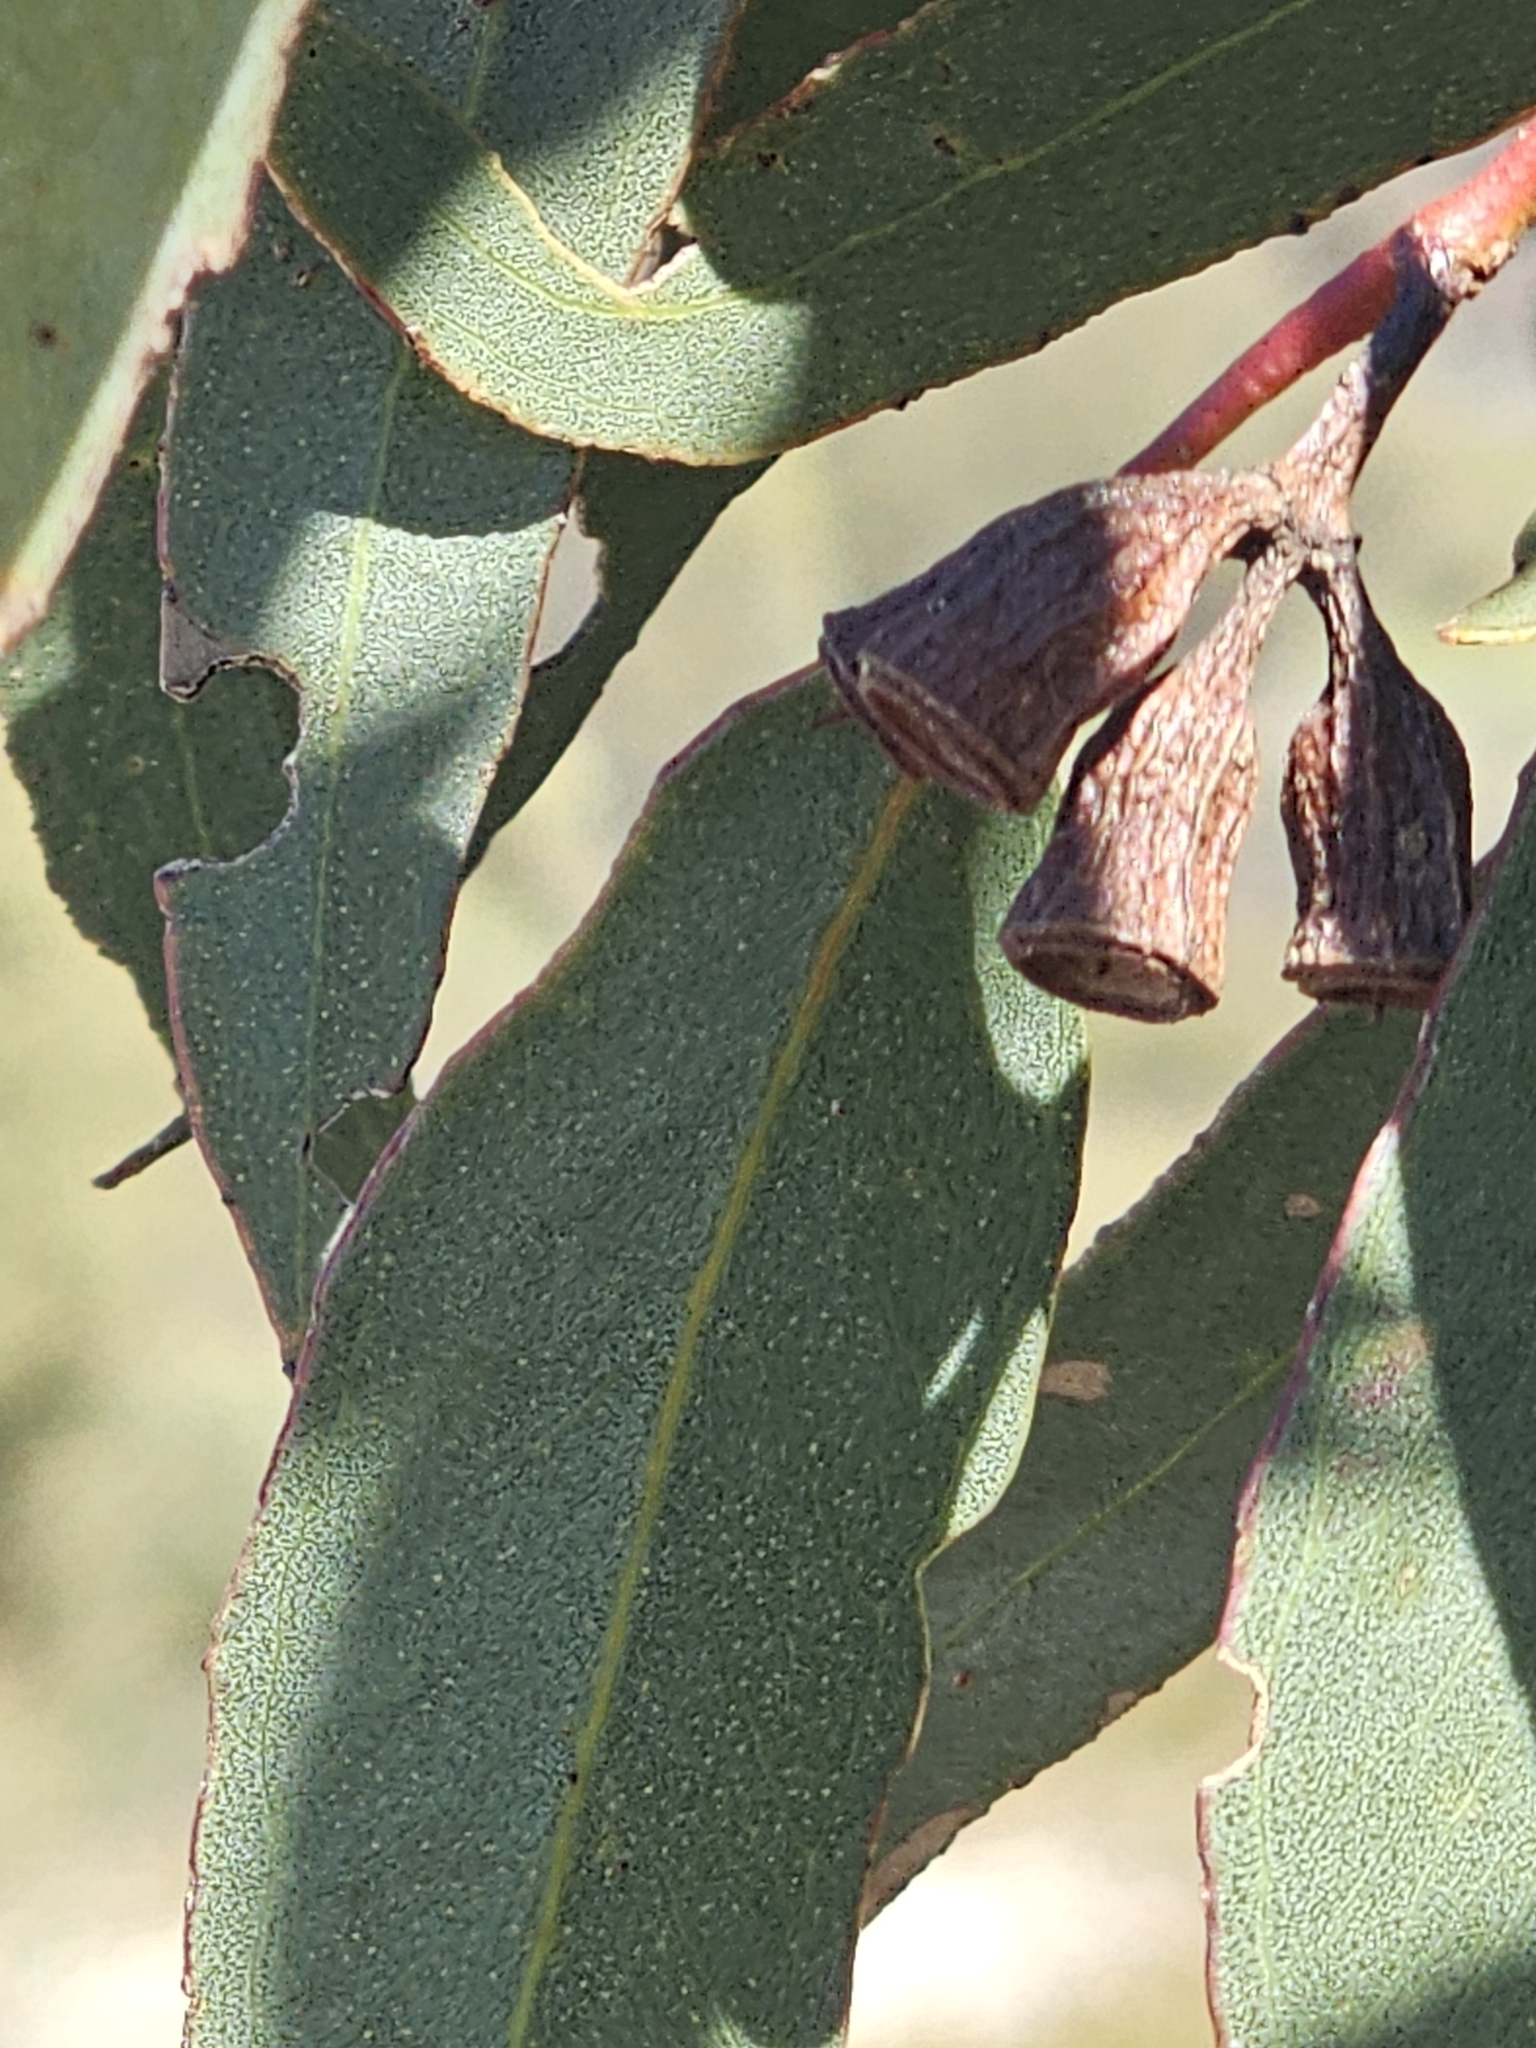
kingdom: Plantae
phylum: Tracheophyta
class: Magnoliopsida
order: Myrtales
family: Myrtaceae
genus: Eucalyptus
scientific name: Eucalyptus incrassata
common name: Ridge-fruit mallee
